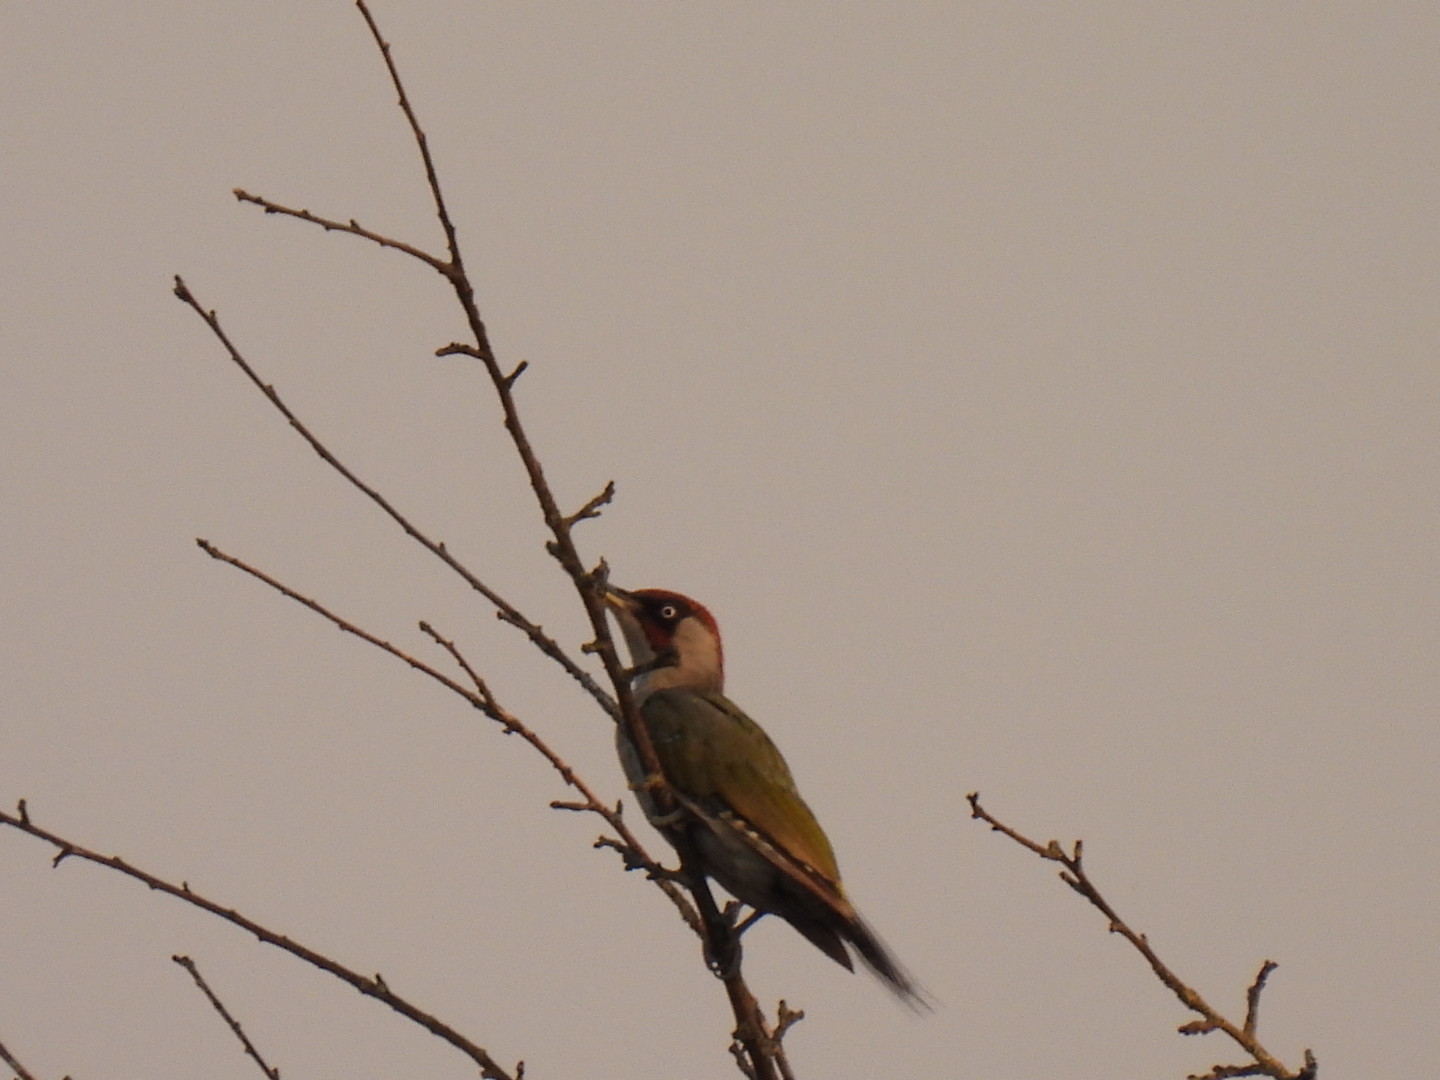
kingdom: Animalia
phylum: Chordata
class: Aves
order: Piciformes
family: Picidae
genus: Picus
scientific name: Picus viridis
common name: European green woodpecker
